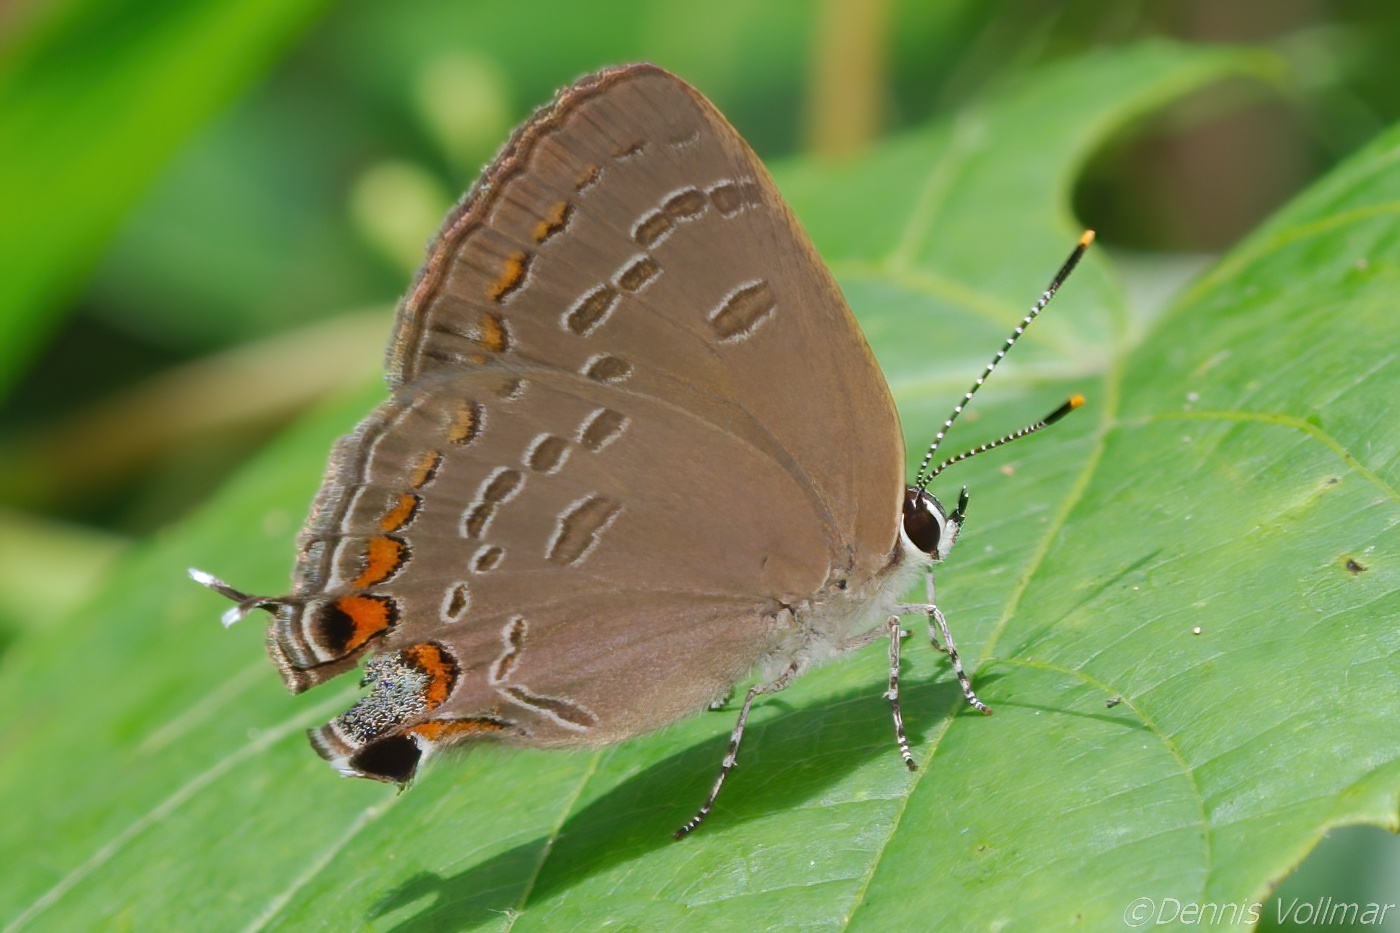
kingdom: Animalia
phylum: Arthropoda
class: Insecta
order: Lepidoptera
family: Lycaenidae
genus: Strymon
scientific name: Strymon kingi
